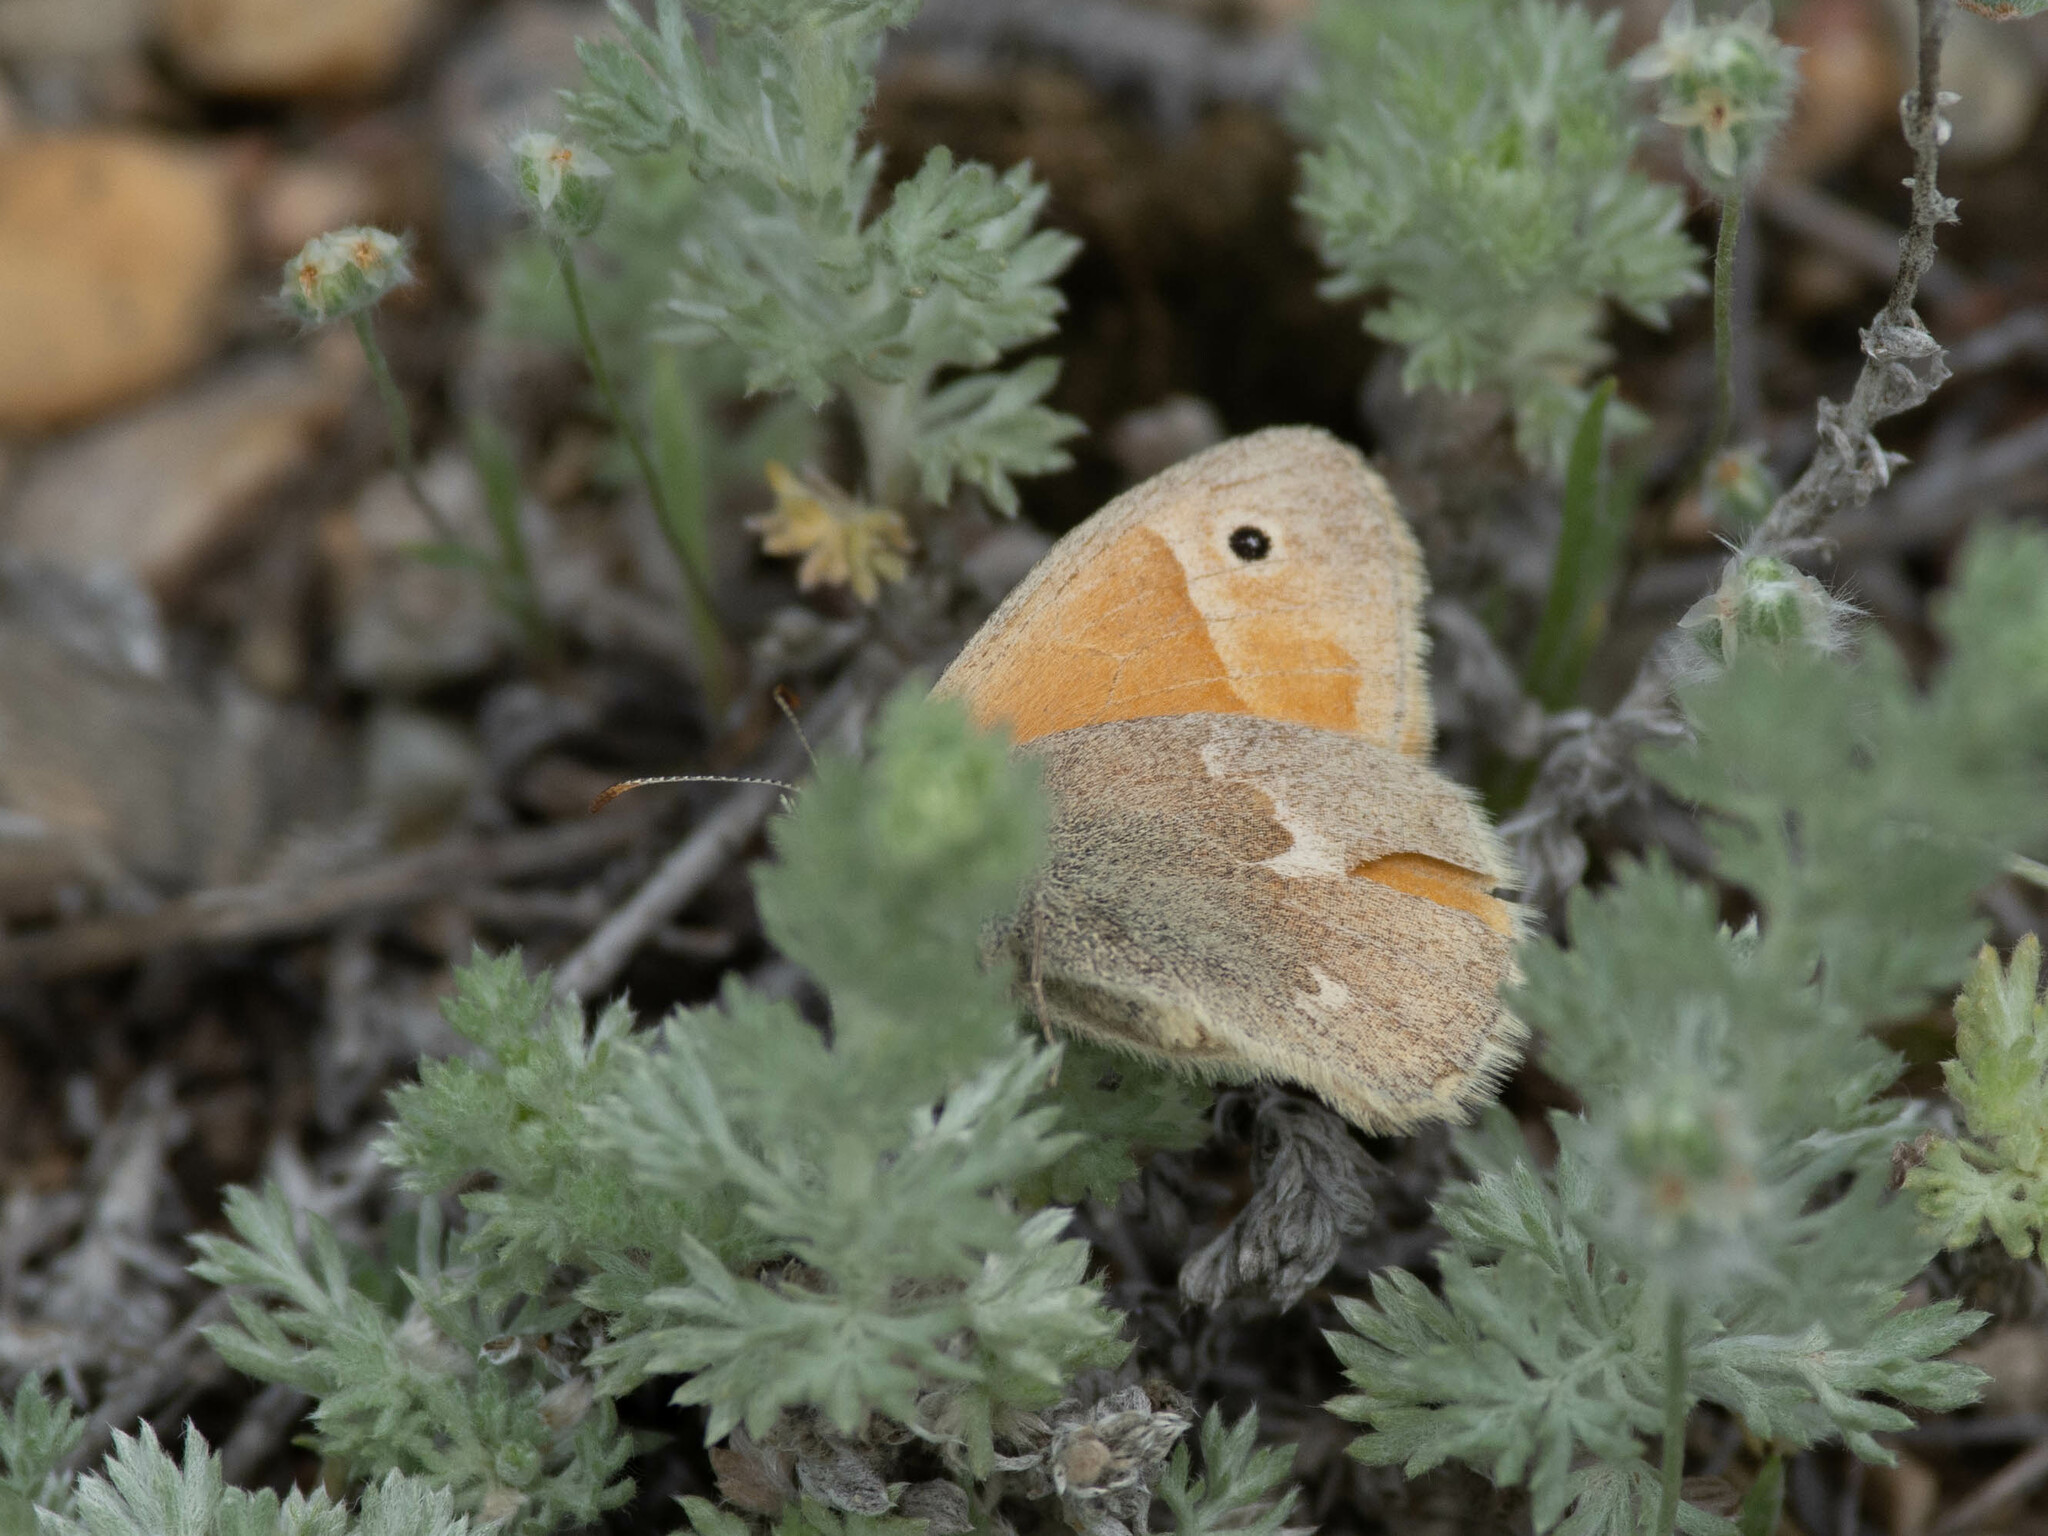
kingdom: Animalia
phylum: Arthropoda
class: Insecta
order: Lepidoptera
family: Nymphalidae
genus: Coenonympha
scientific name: Coenonympha california
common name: Common ringlet
